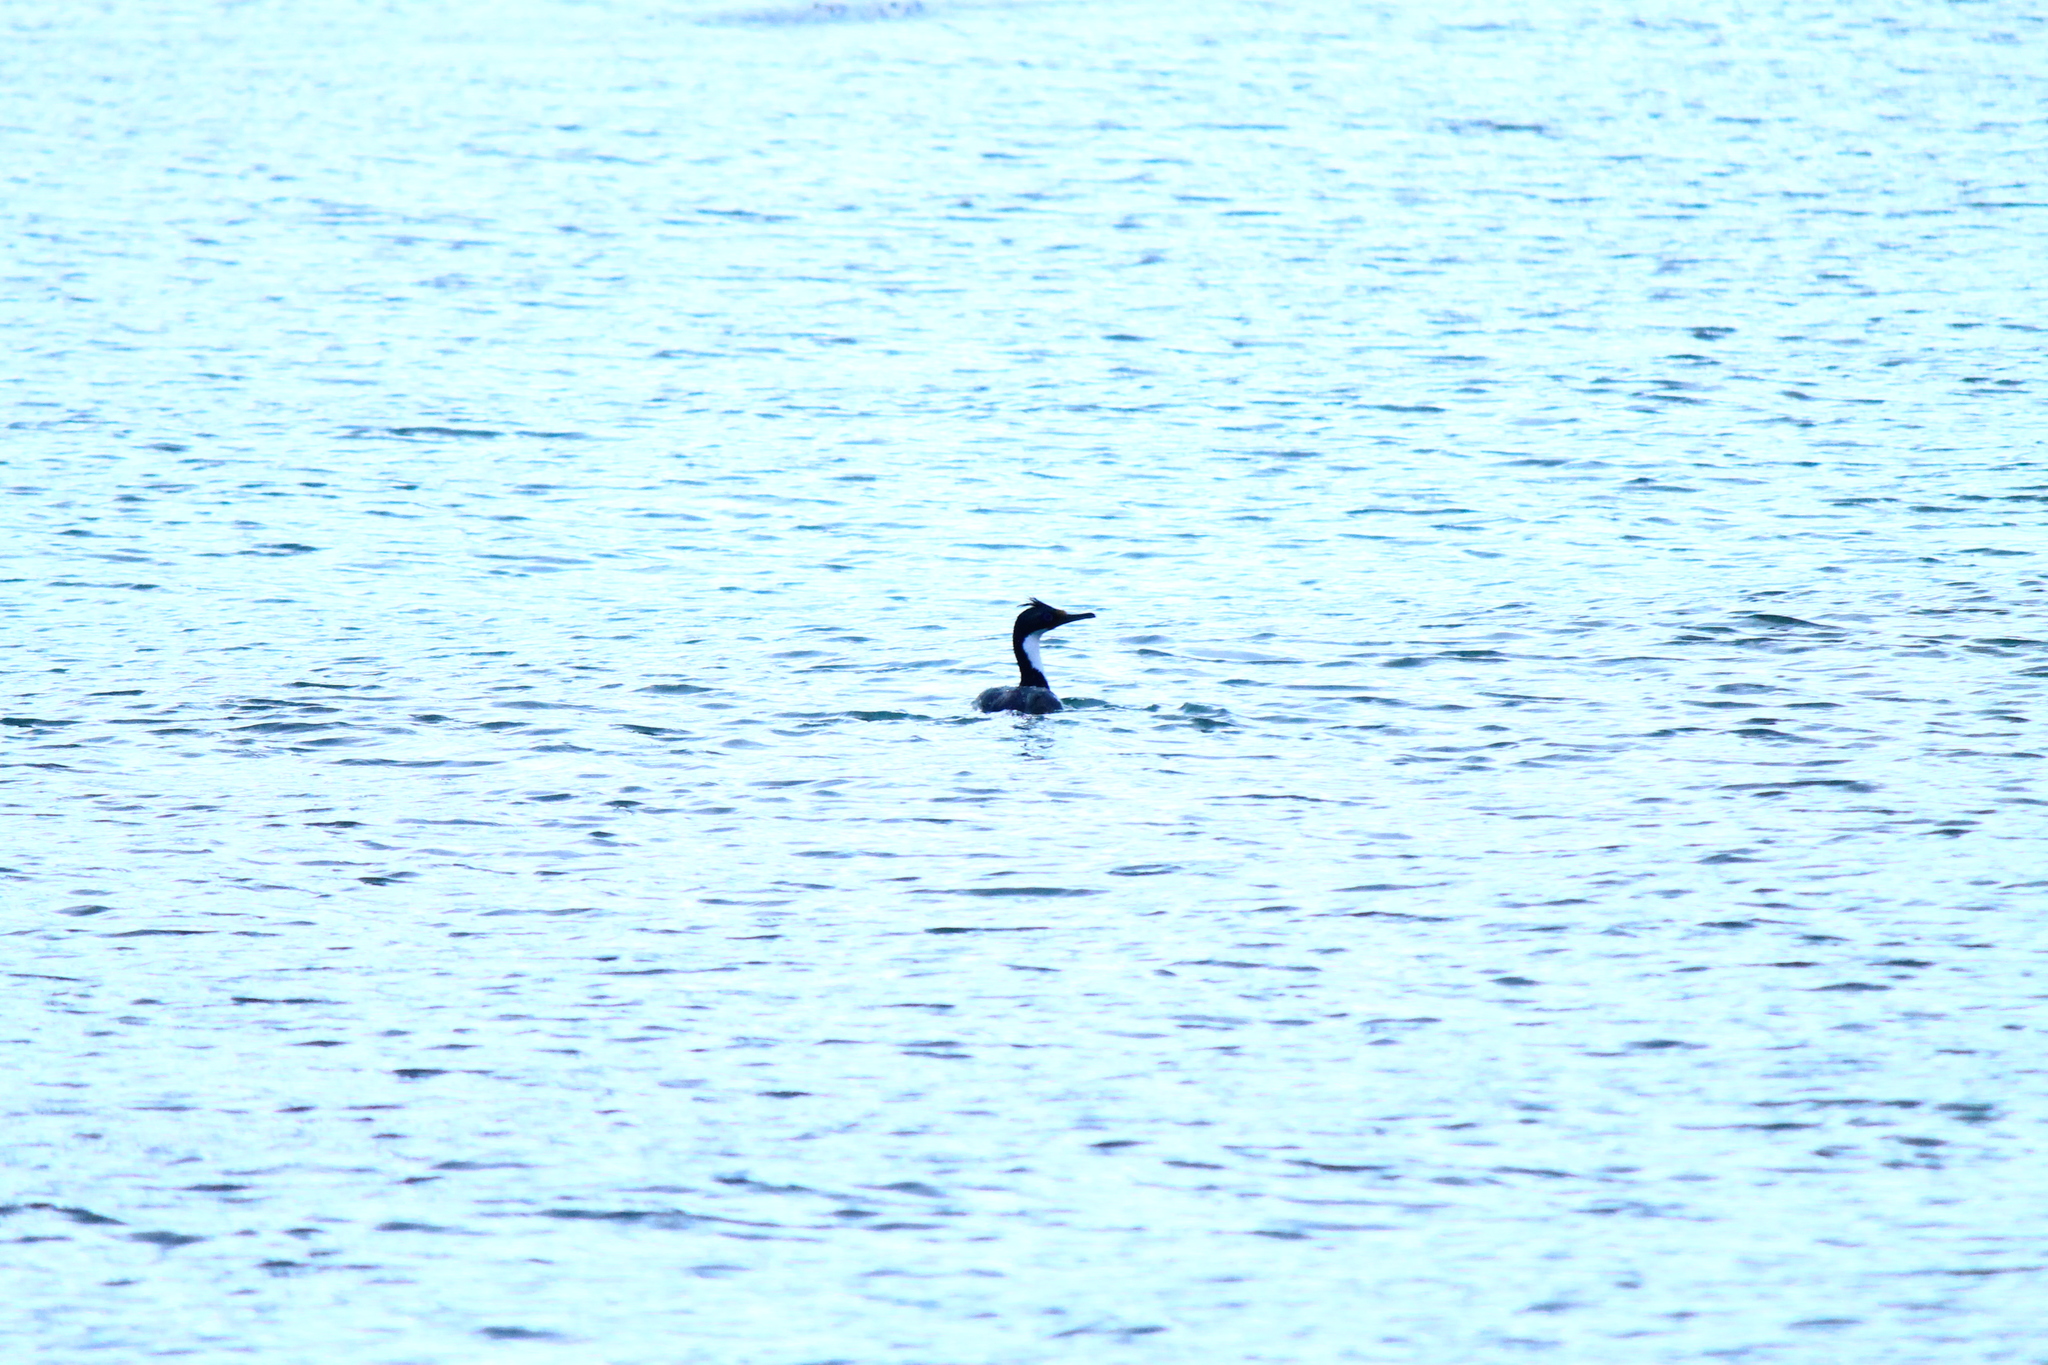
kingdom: Animalia
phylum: Chordata
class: Aves
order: Suliformes
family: Phalacrocoracidae
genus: Leucocarbo
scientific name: Leucocarbo atriceps
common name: Imperial shag
